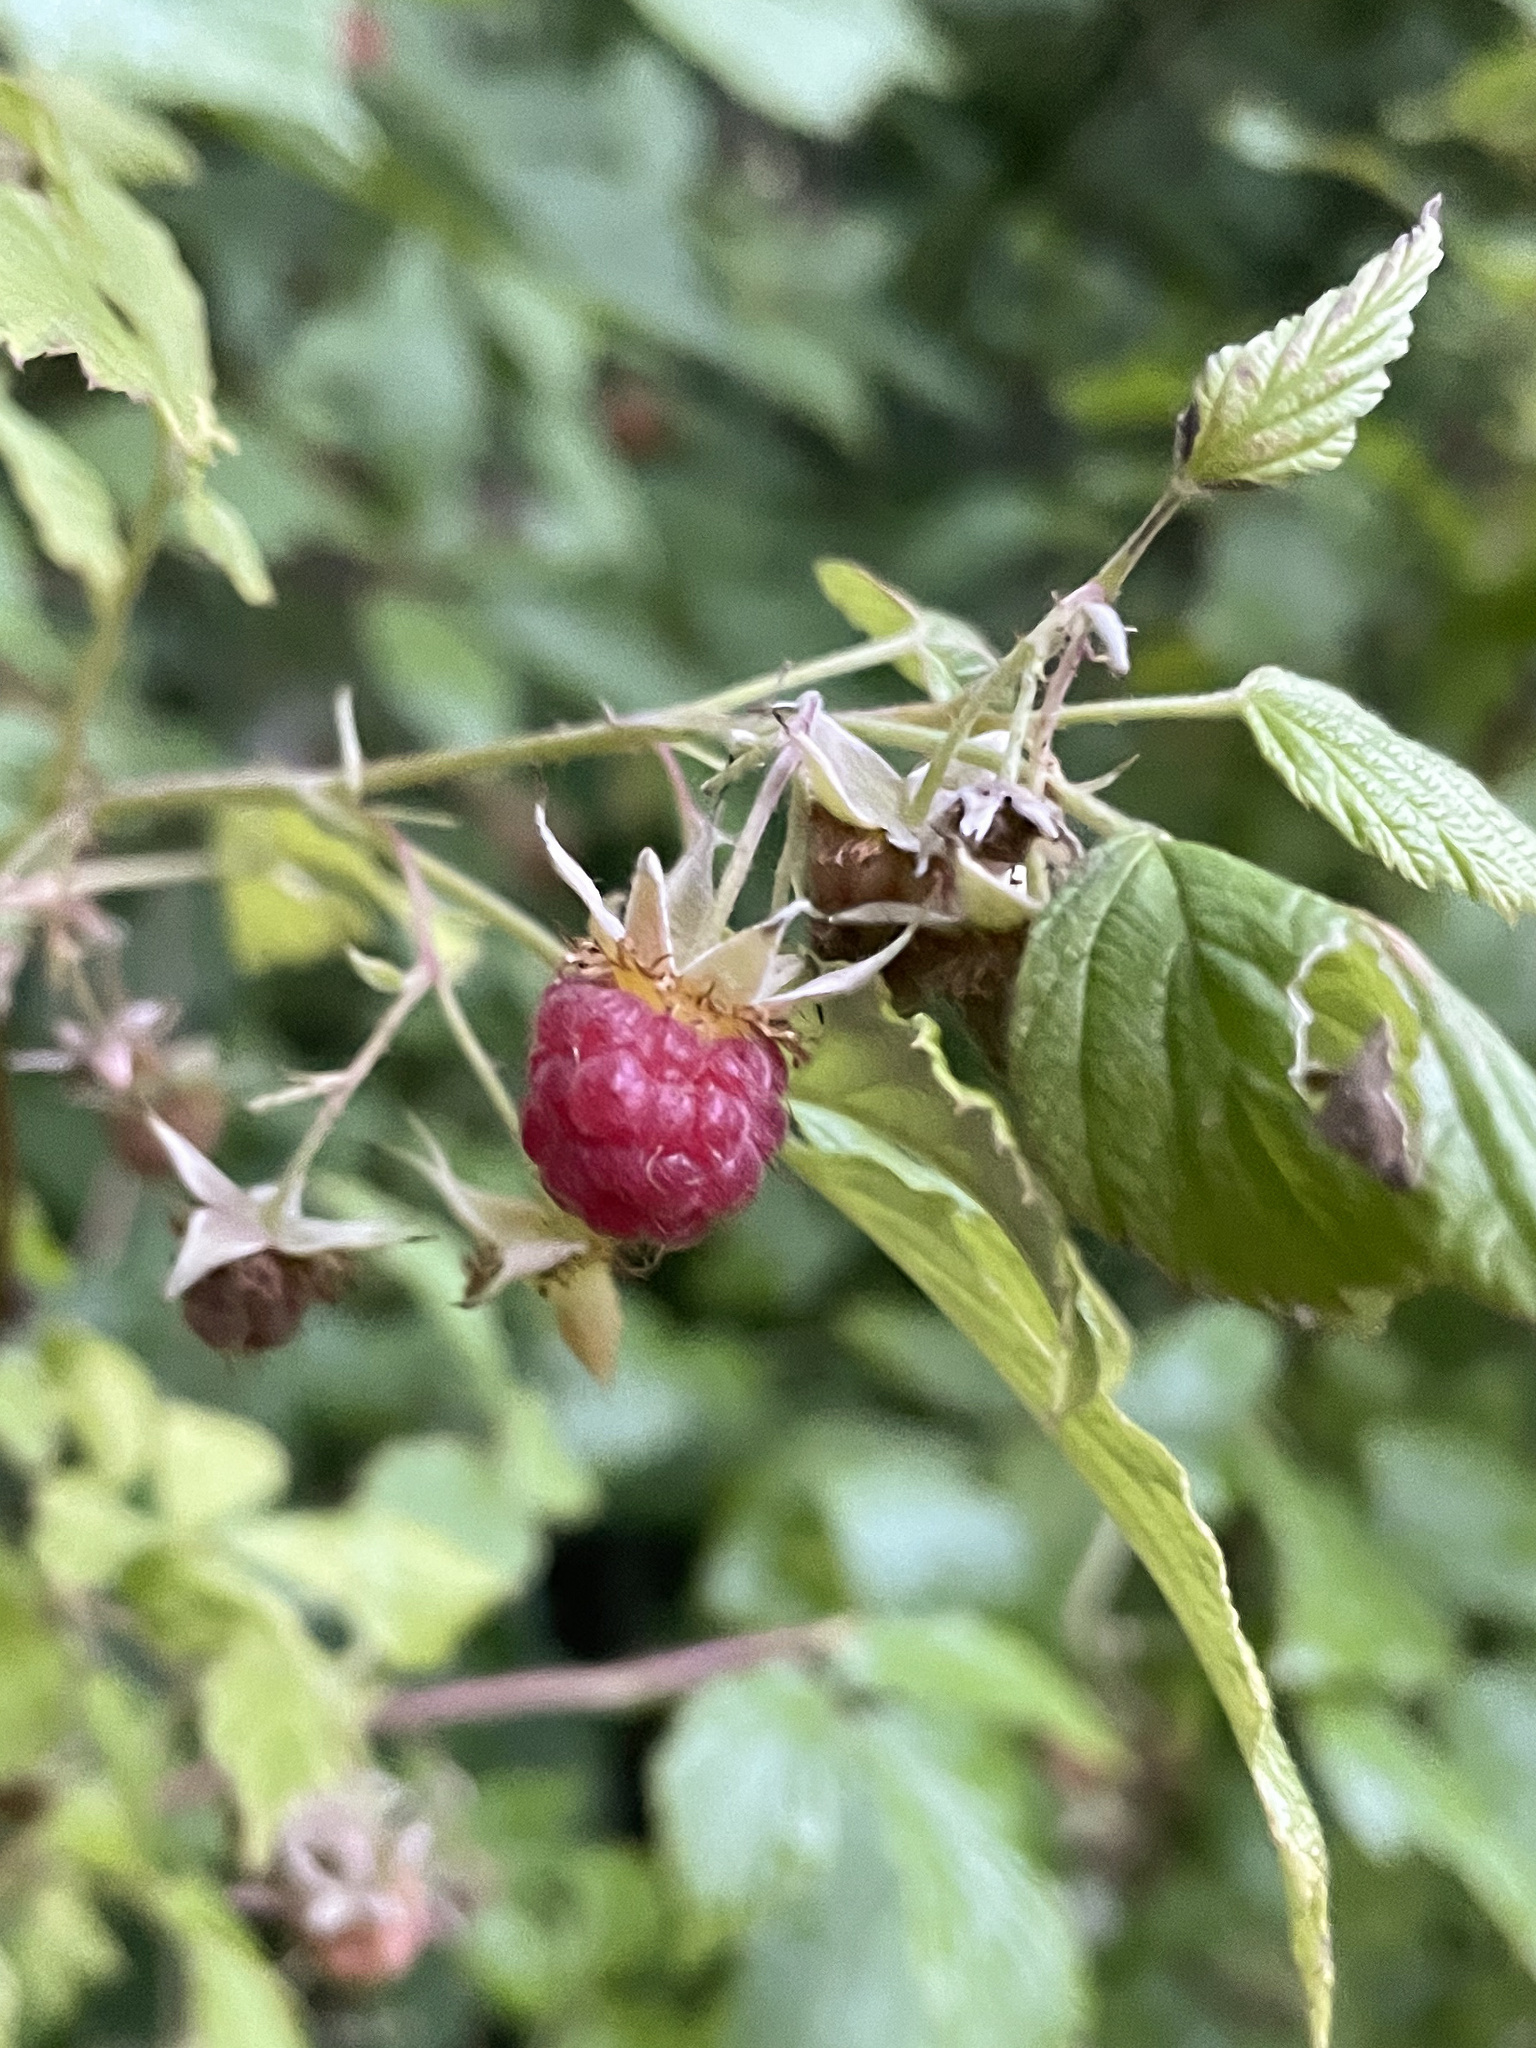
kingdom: Plantae
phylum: Tracheophyta
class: Magnoliopsida
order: Rosales
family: Rosaceae
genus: Rubus
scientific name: Rubus idaeus
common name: Raspberry
